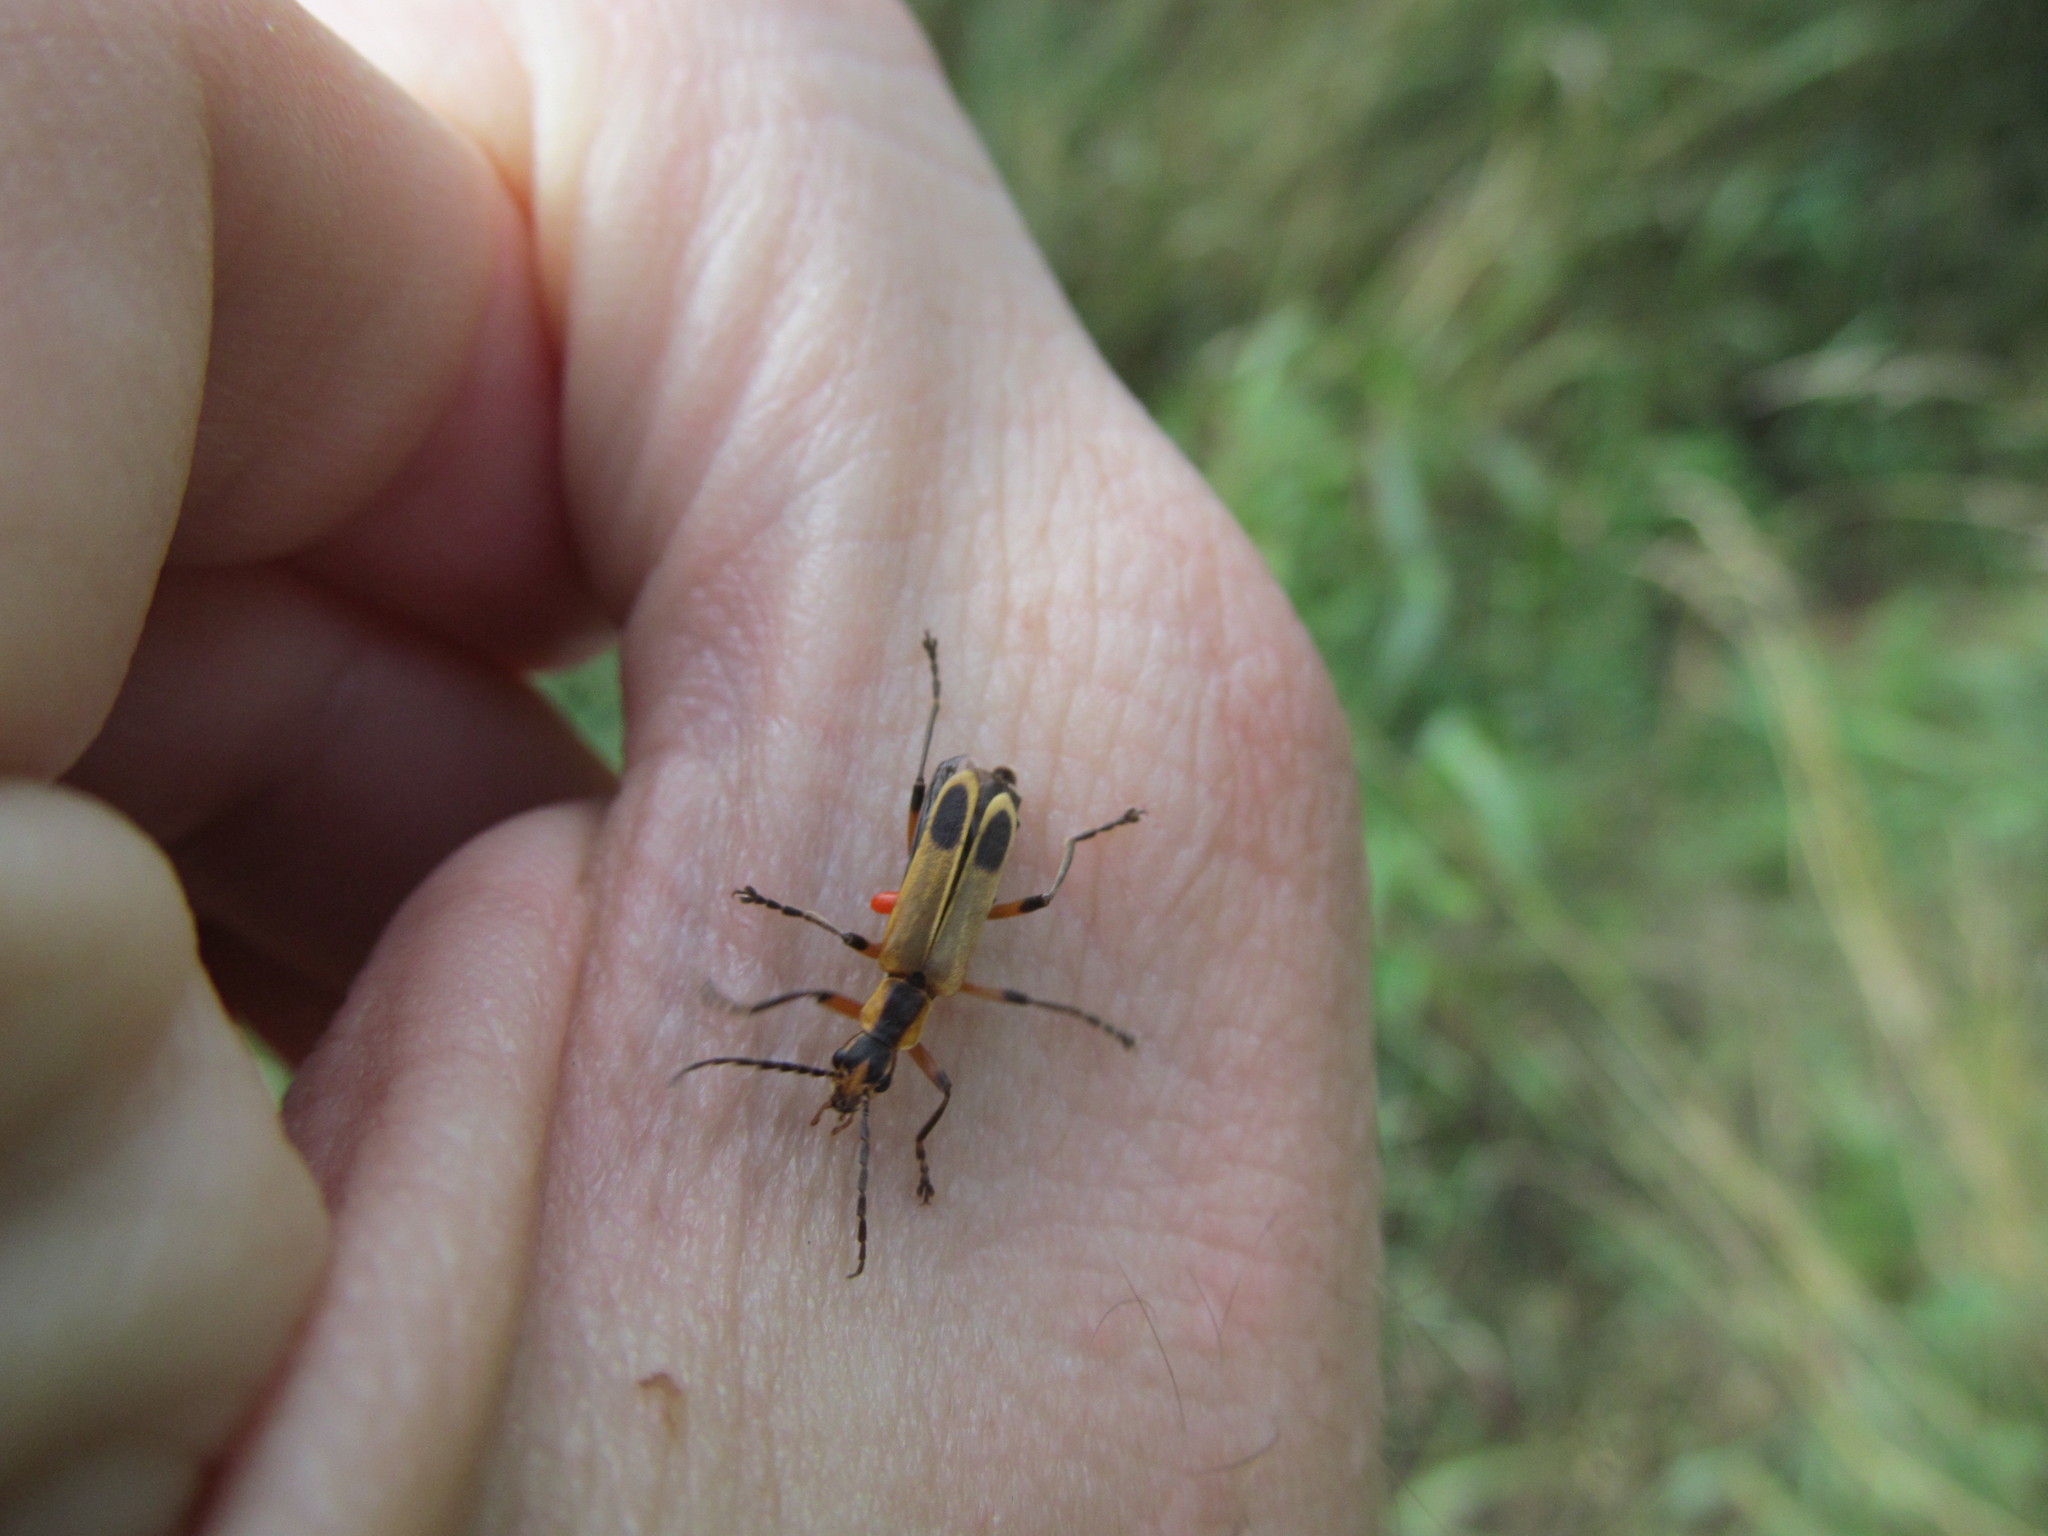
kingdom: Animalia
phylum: Arthropoda
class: Insecta
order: Coleoptera
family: Cantharidae
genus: Chauliognathus
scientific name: Chauliognathus marginatus
